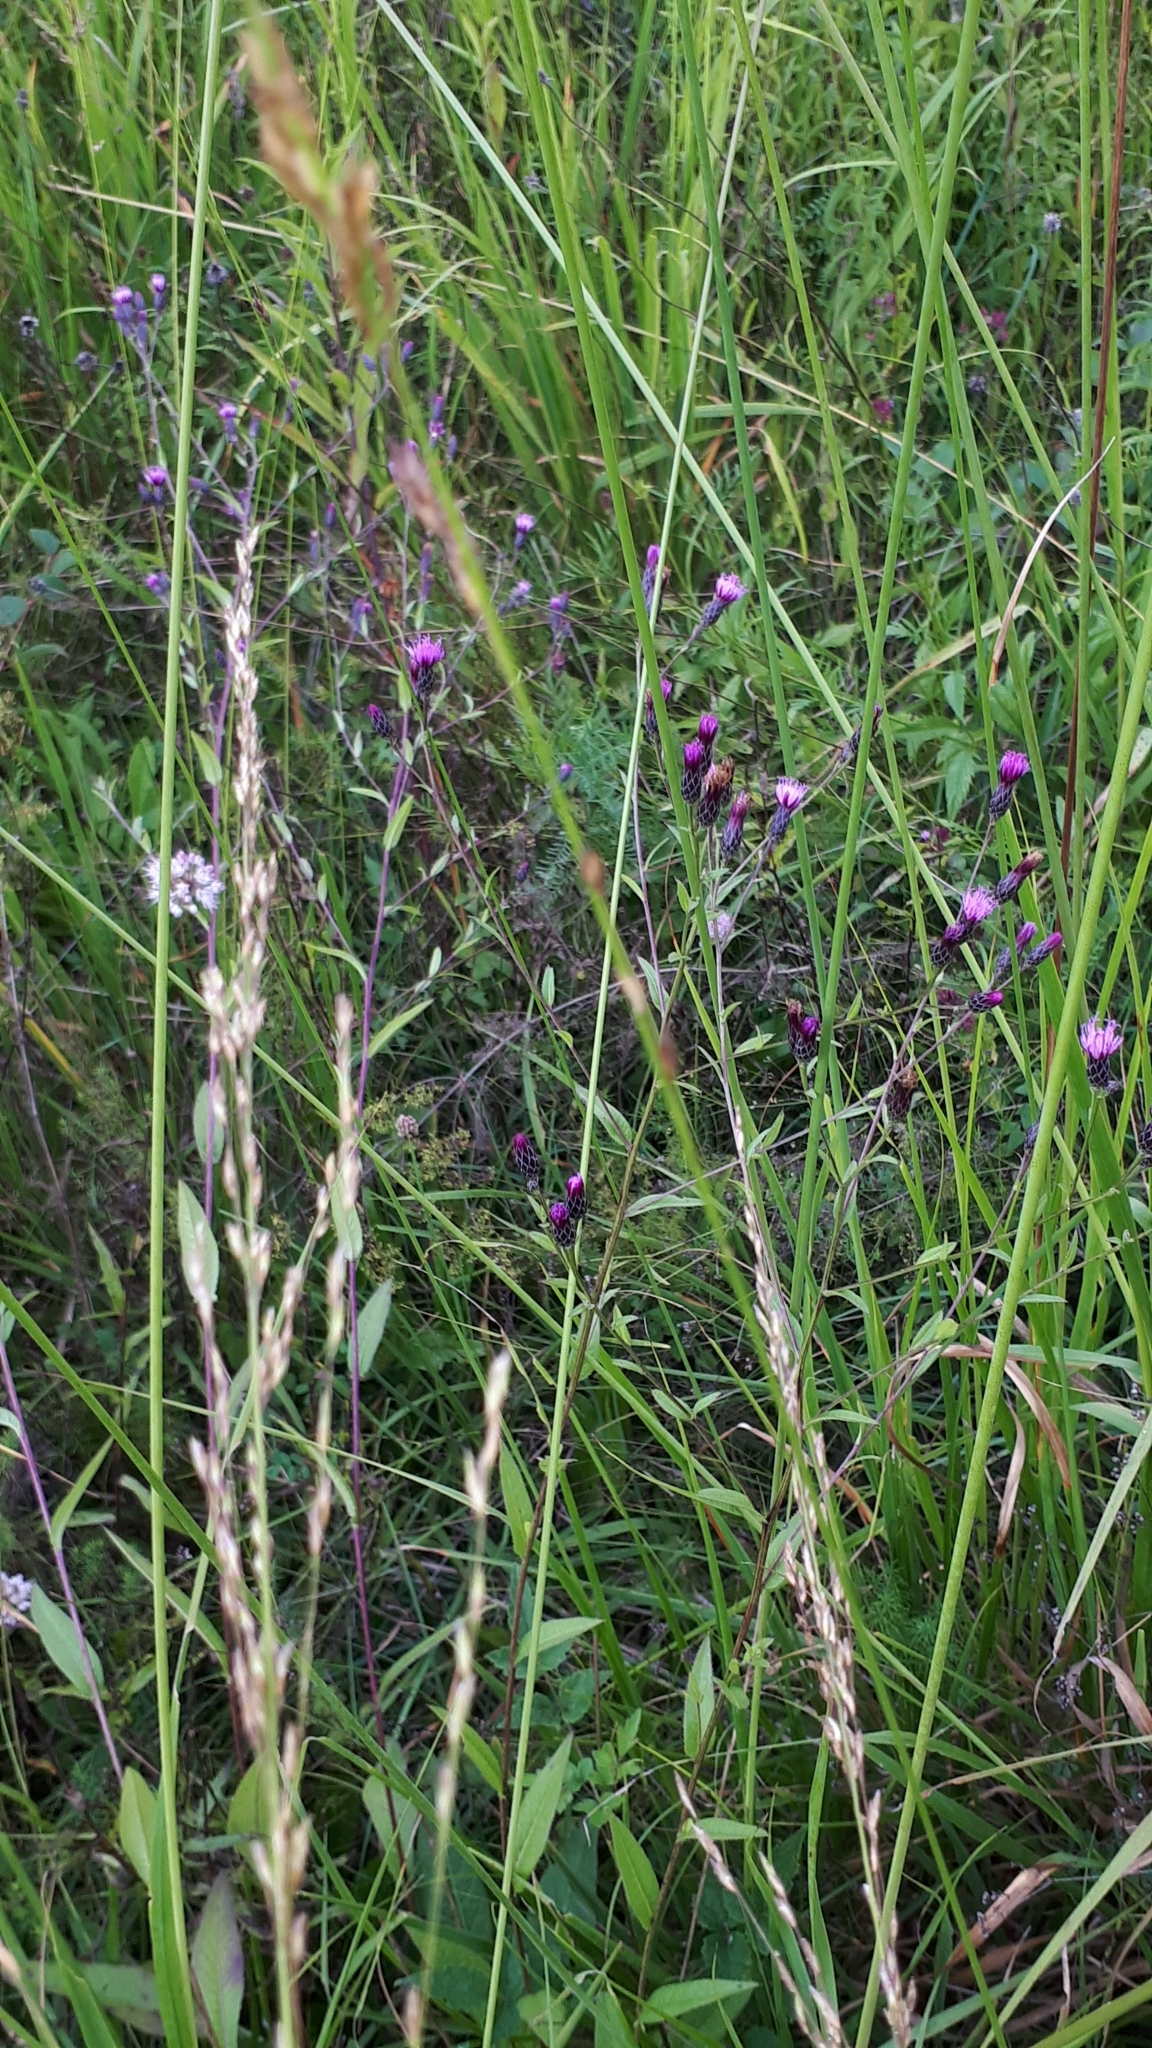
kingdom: Plantae
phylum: Tracheophyta
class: Magnoliopsida
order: Asterales
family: Asteraceae
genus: Serratula
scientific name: Serratula tinctoria
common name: Saw-wort
